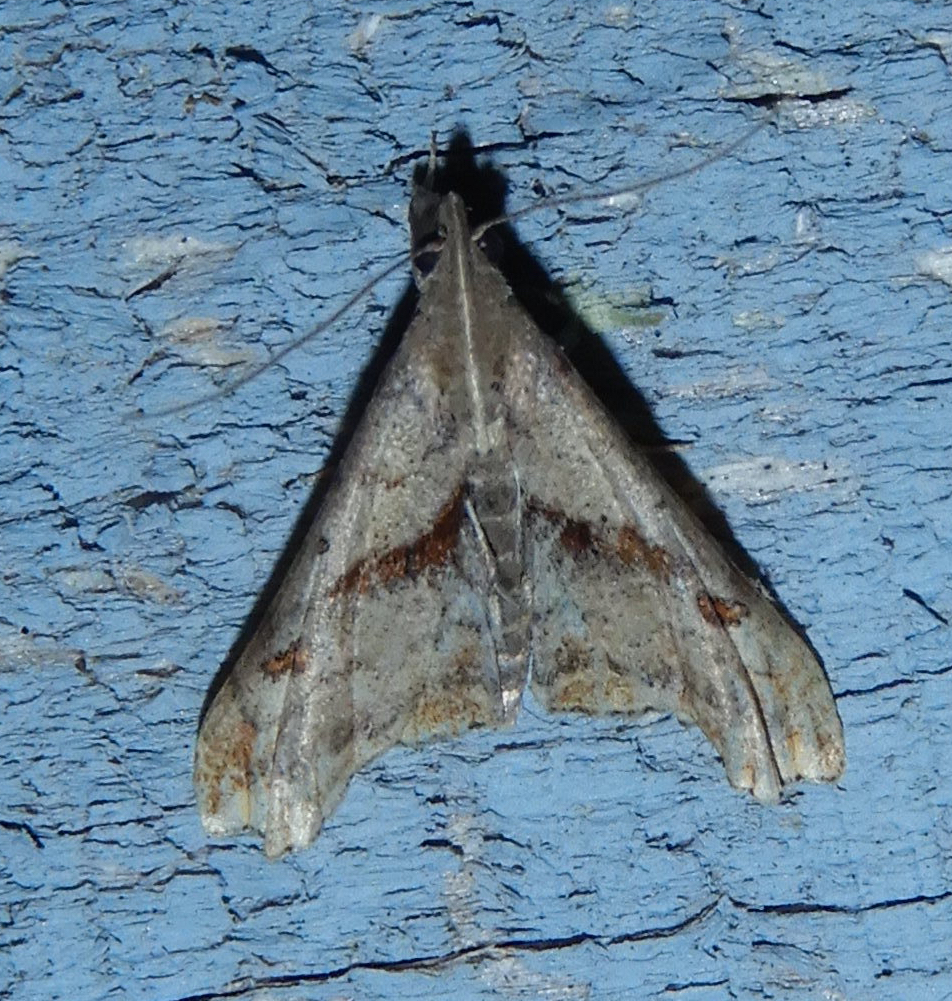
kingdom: Animalia
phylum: Arthropoda
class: Insecta
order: Lepidoptera
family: Erebidae
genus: Palthis
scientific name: Palthis angulalis
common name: Dark-spotted palthis moth
